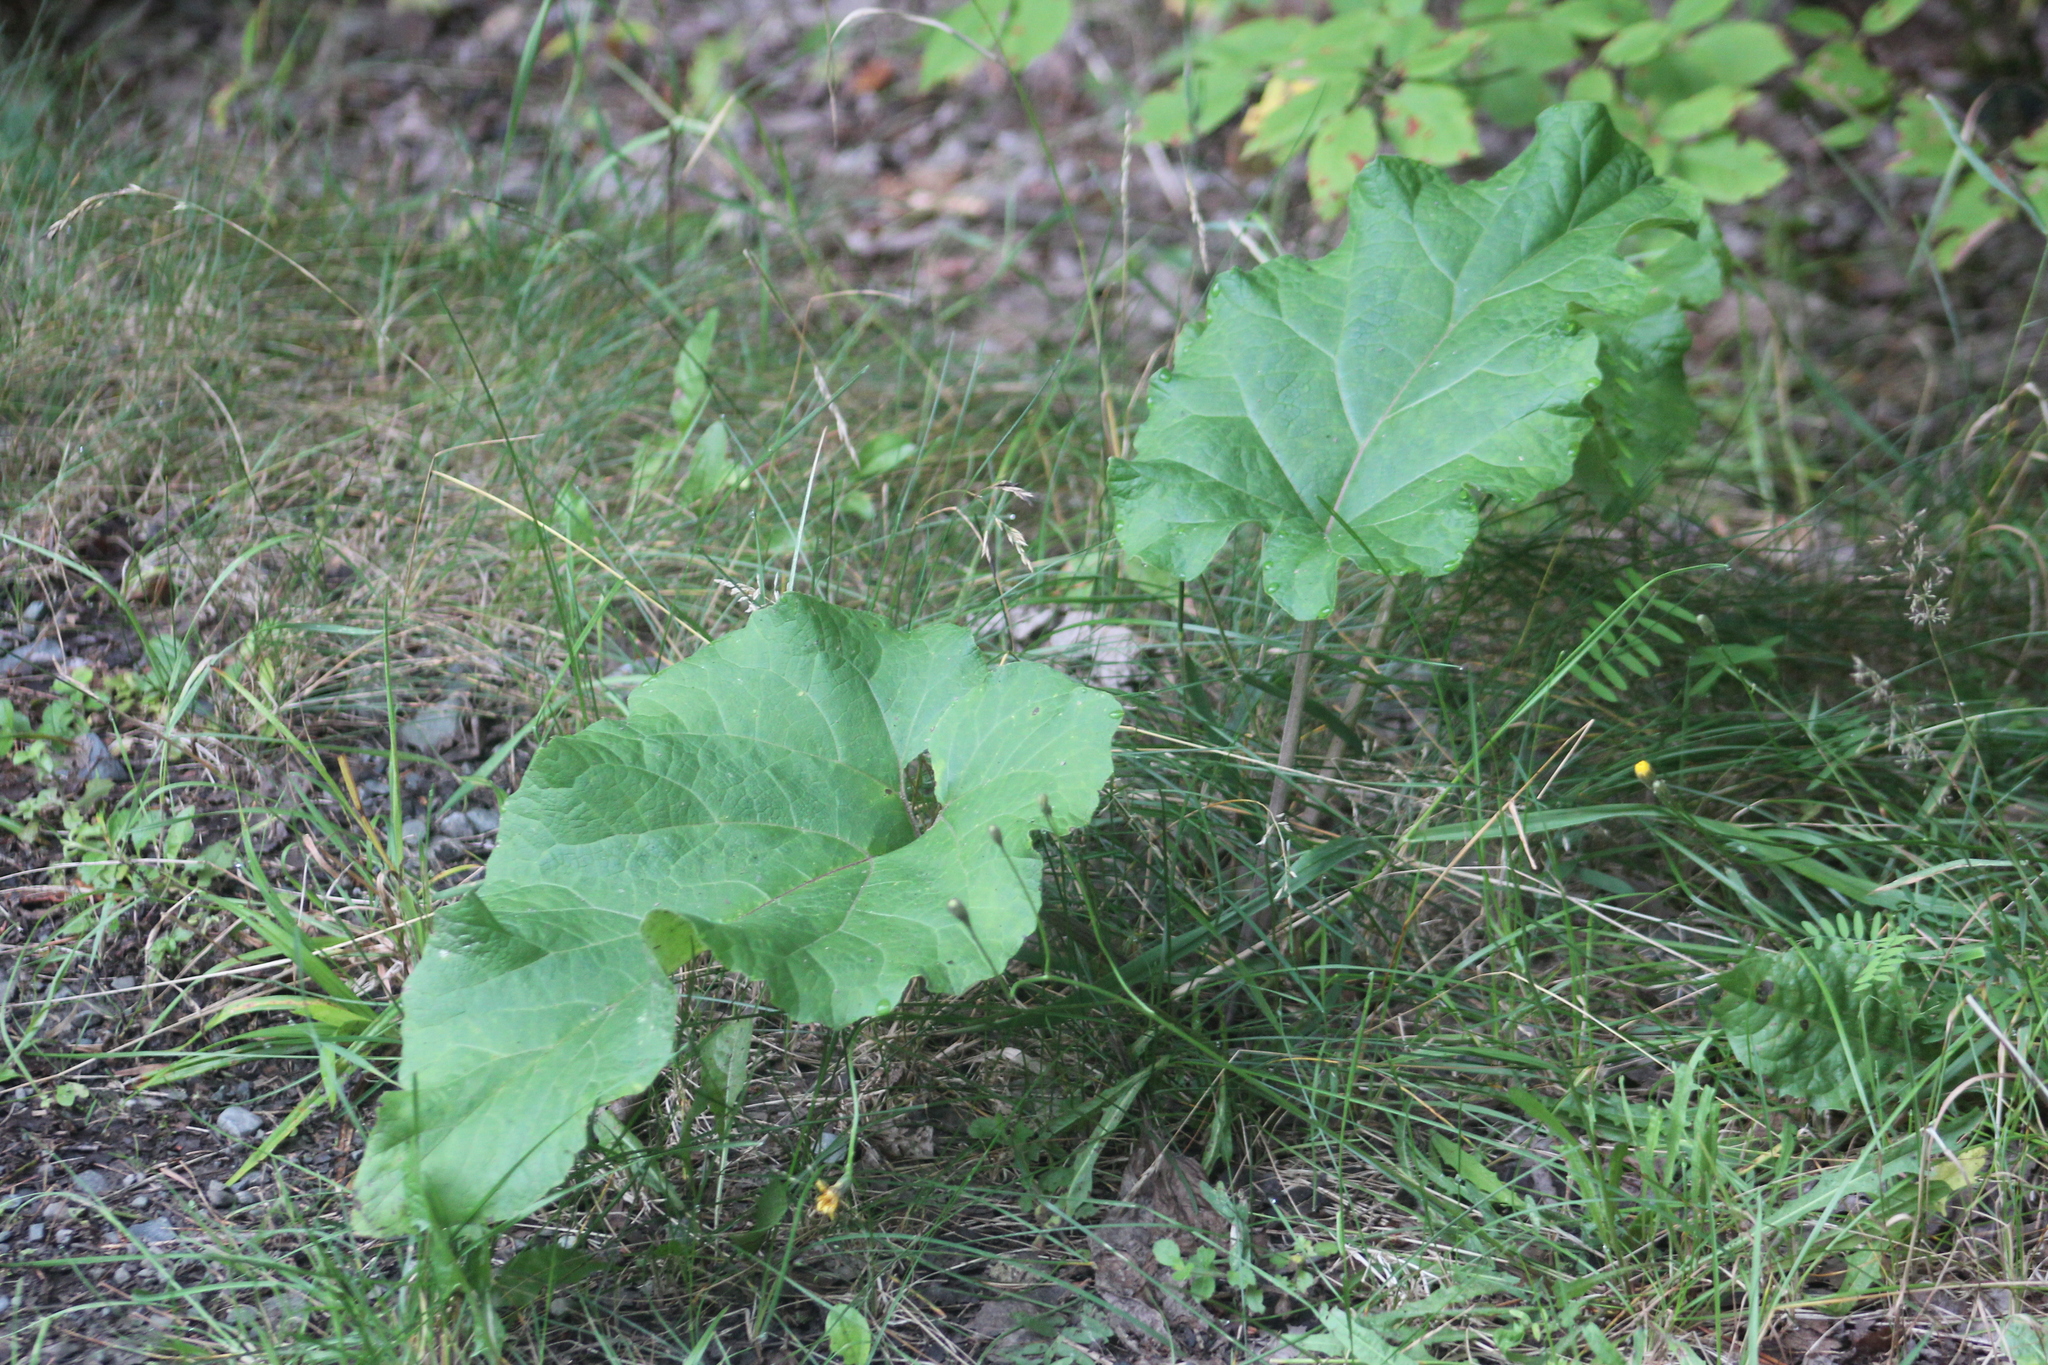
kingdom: Plantae
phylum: Tracheophyta
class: Magnoliopsida
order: Asterales
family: Asteraceae
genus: Arctium
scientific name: Arctium
